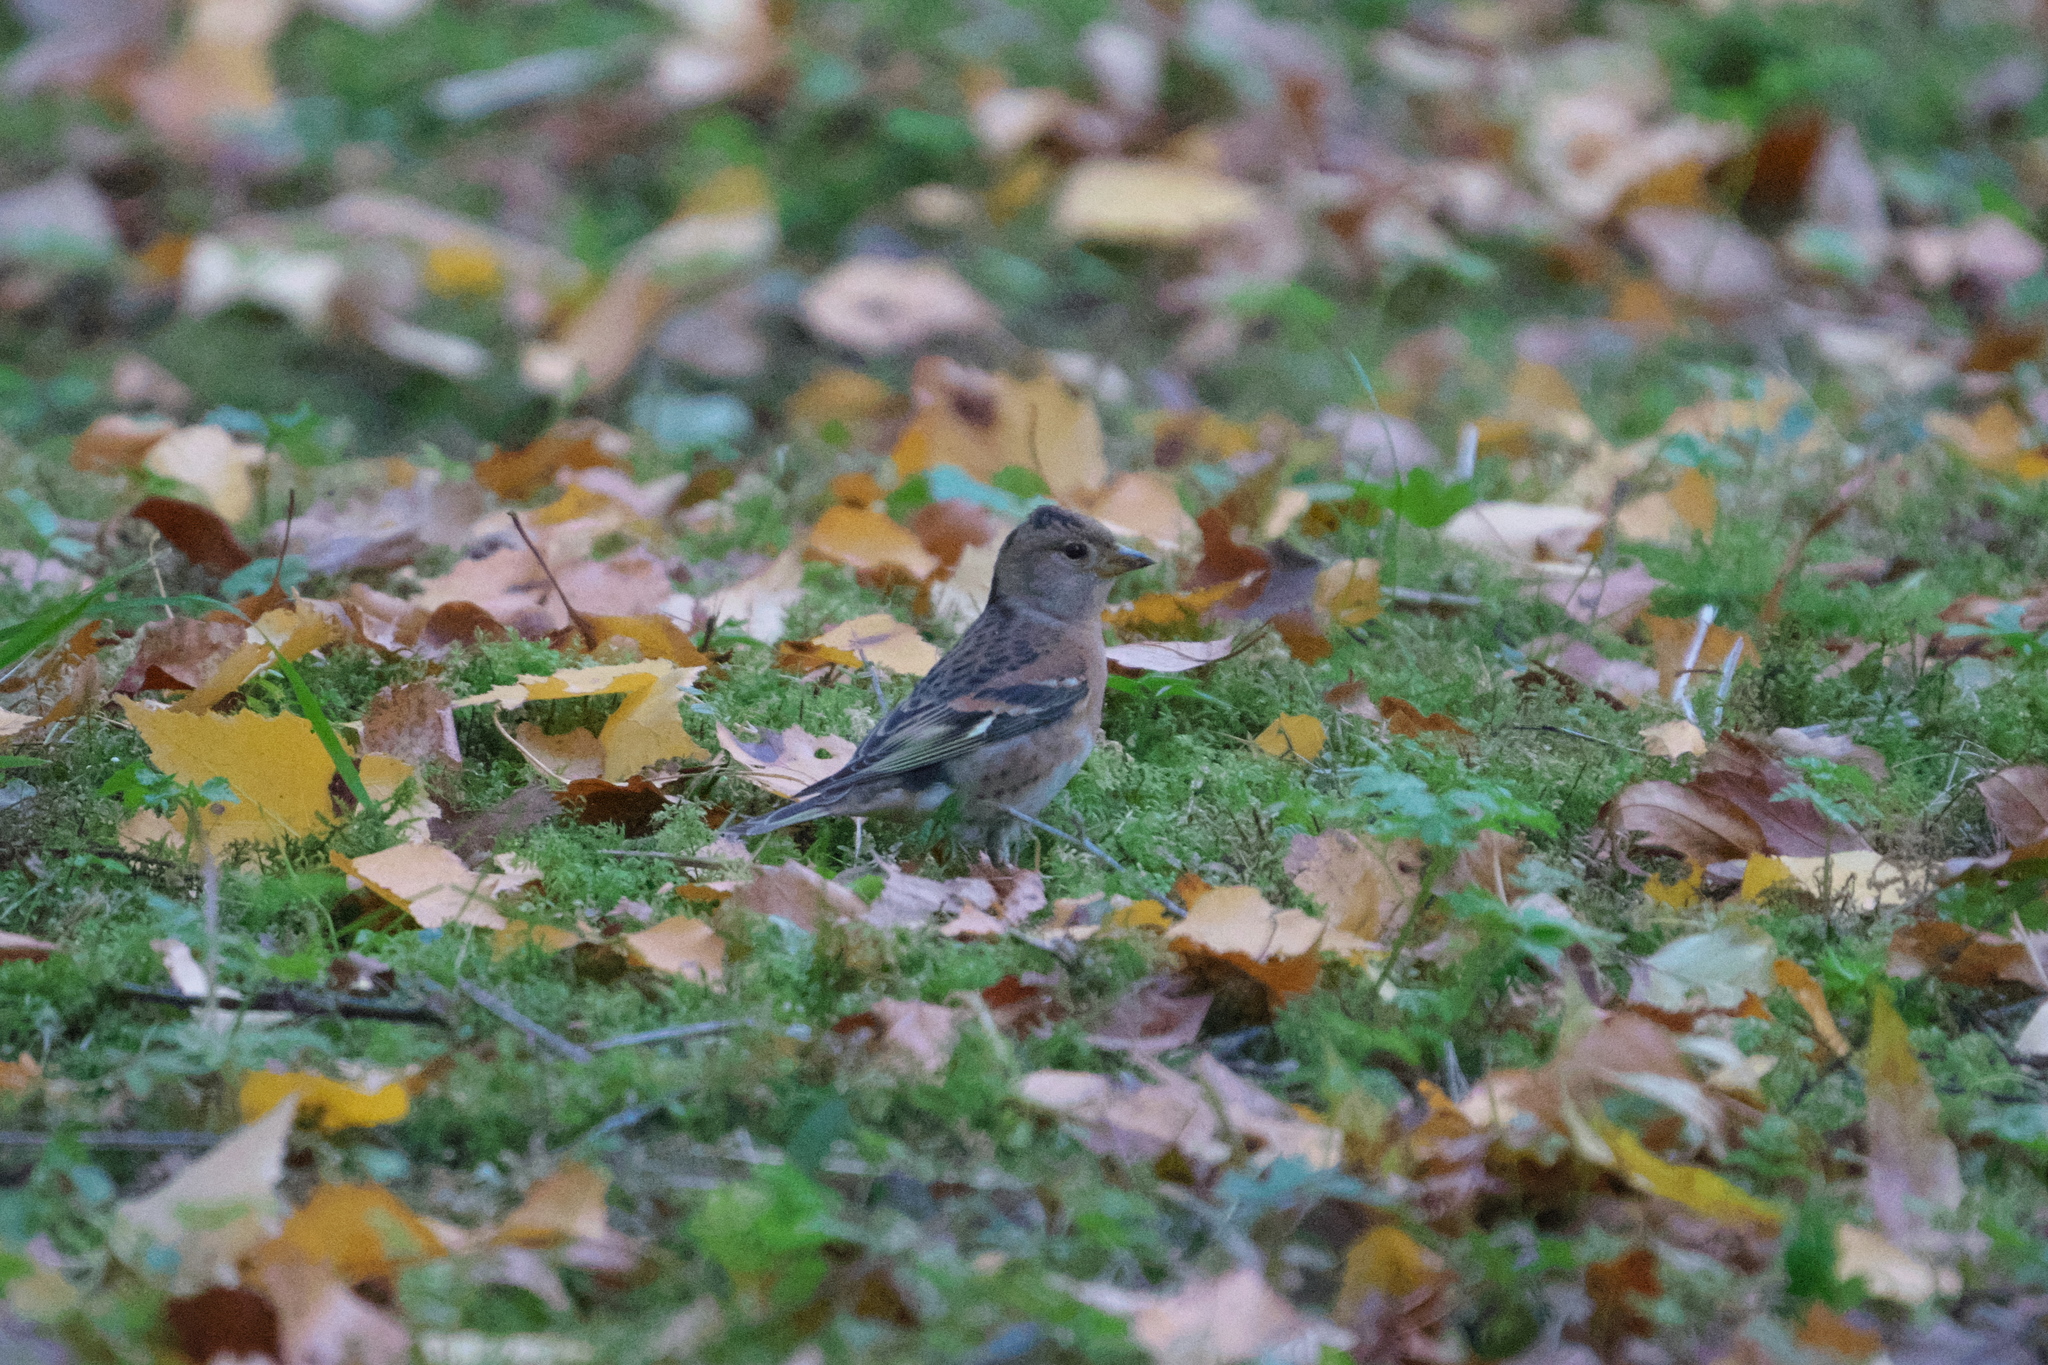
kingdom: Animalia
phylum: Chordata
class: Aves
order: Passeriformes
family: Fringillidae
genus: Fringilla
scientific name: Fringilla montifringilla
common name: Brambling
